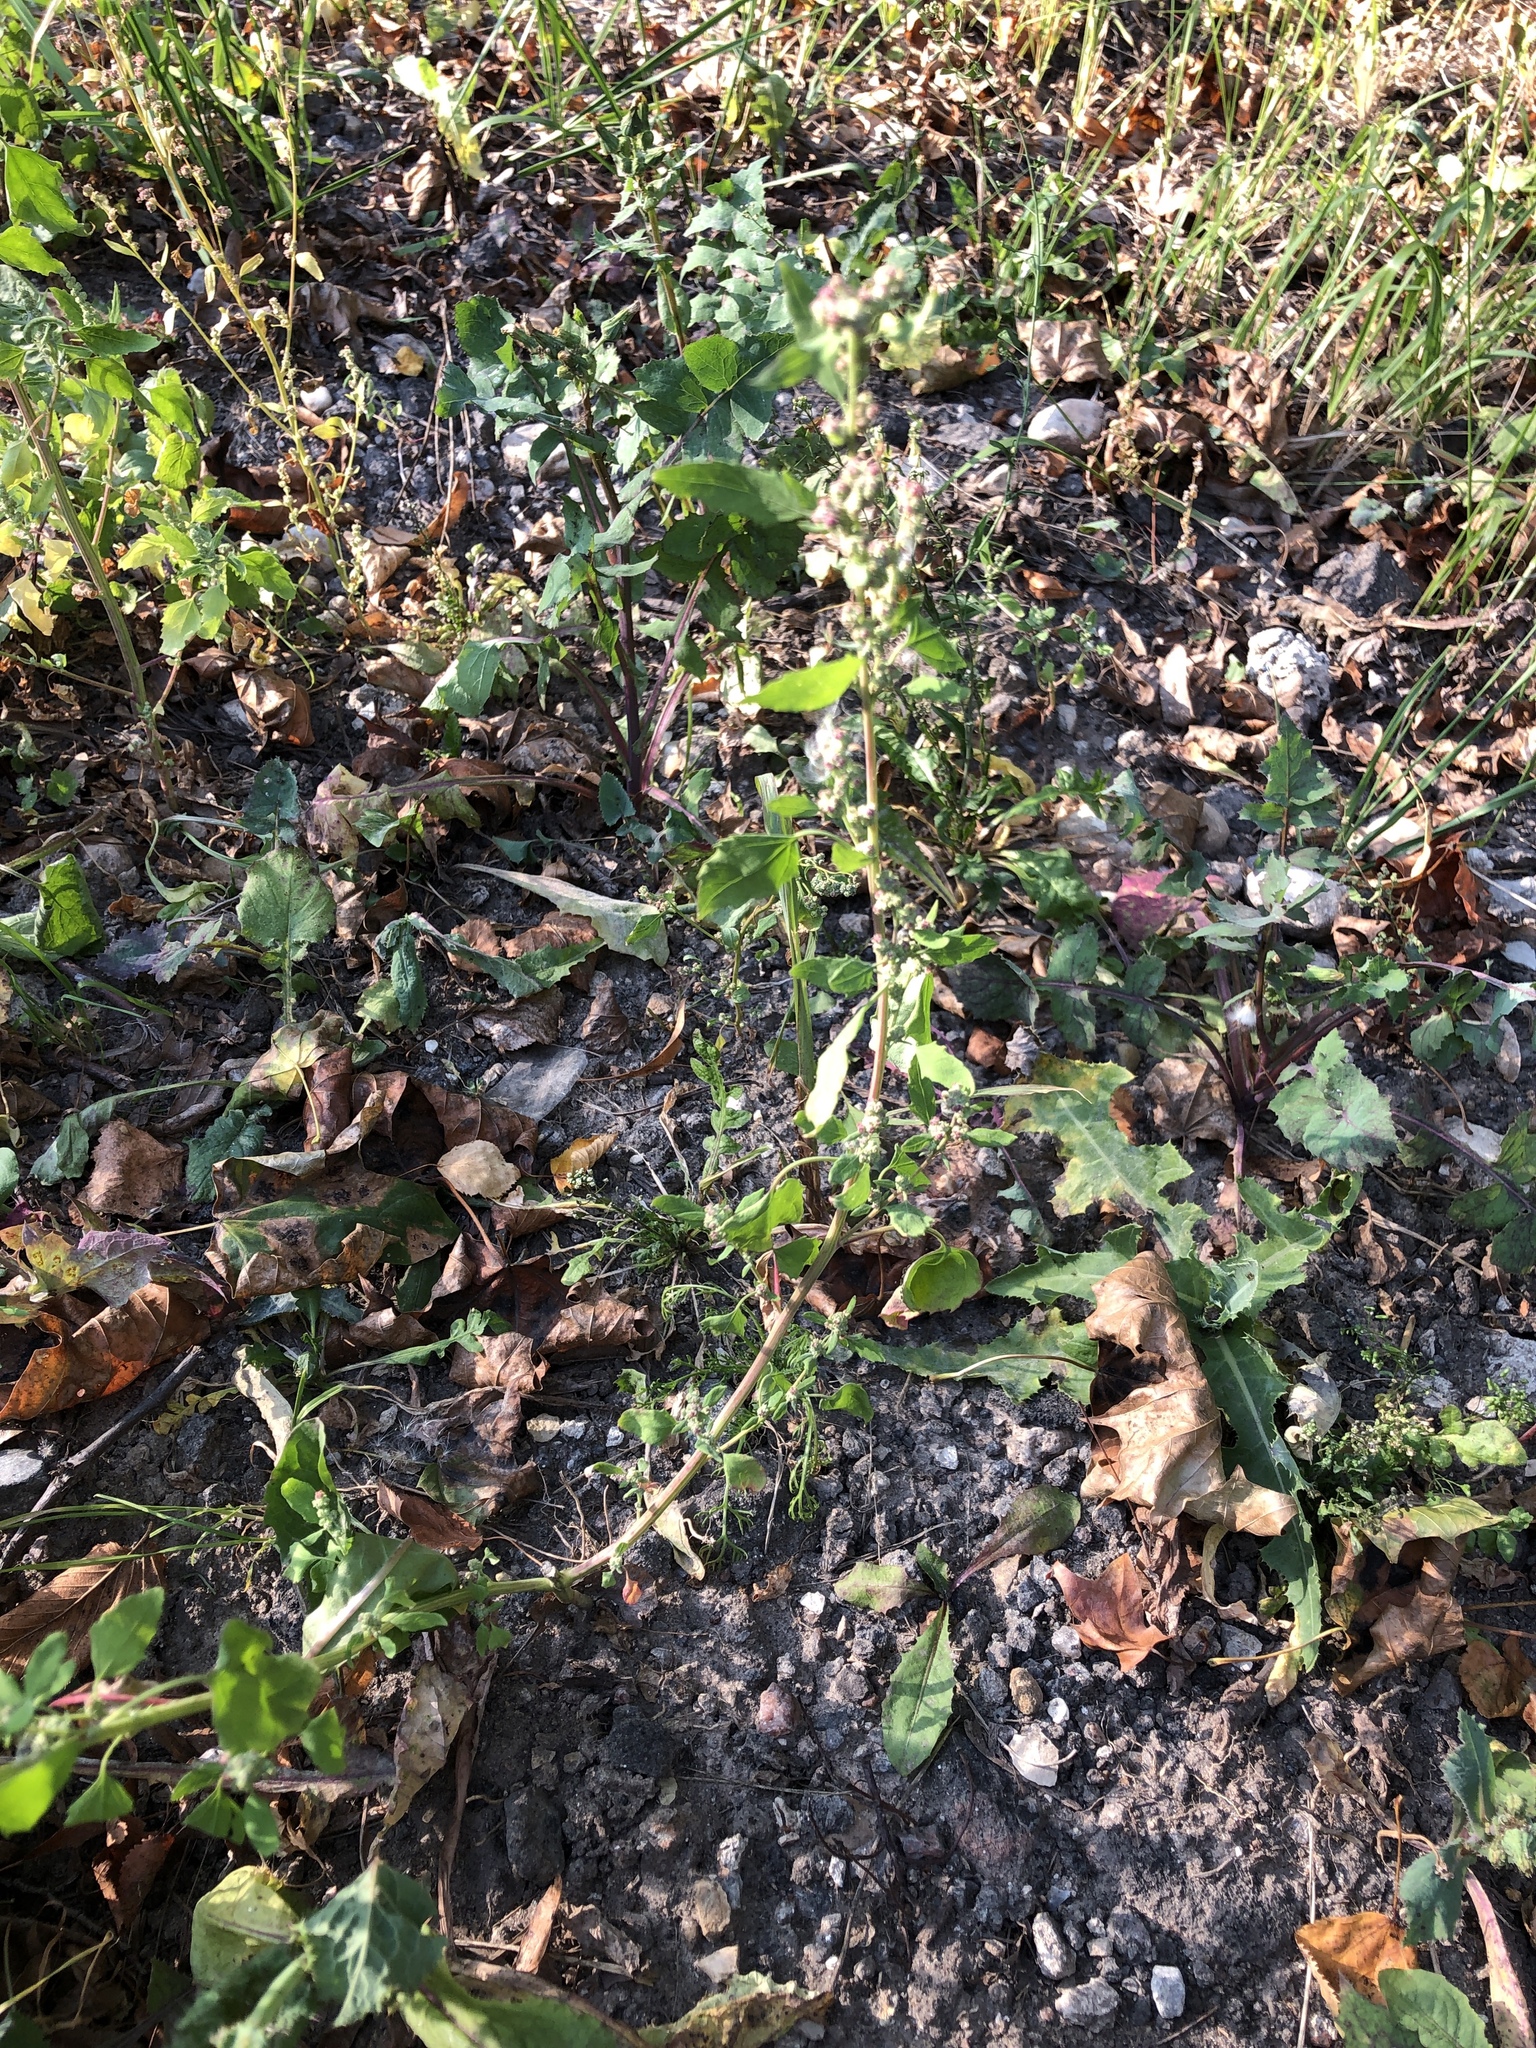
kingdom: Plantae
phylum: Tracheophyta
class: Magnoliopsida
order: Caryophyllales
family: Amaranthaceae
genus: Chenopodium
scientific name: Chenopodium album
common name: Fat-hen
